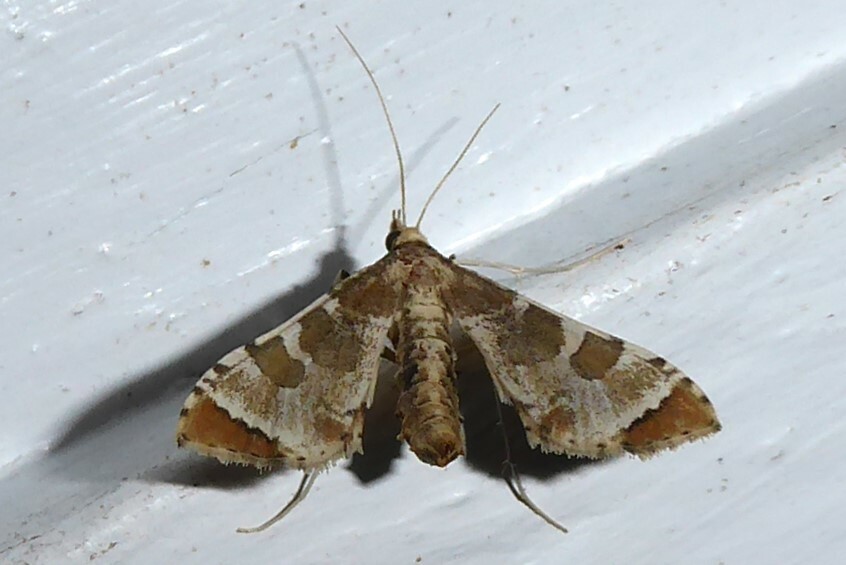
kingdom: Animalia
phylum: Arthropoda
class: Insecta
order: Lepidoptera
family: Crambidae
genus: Sceliodes
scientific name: Sceliodes cordalis
